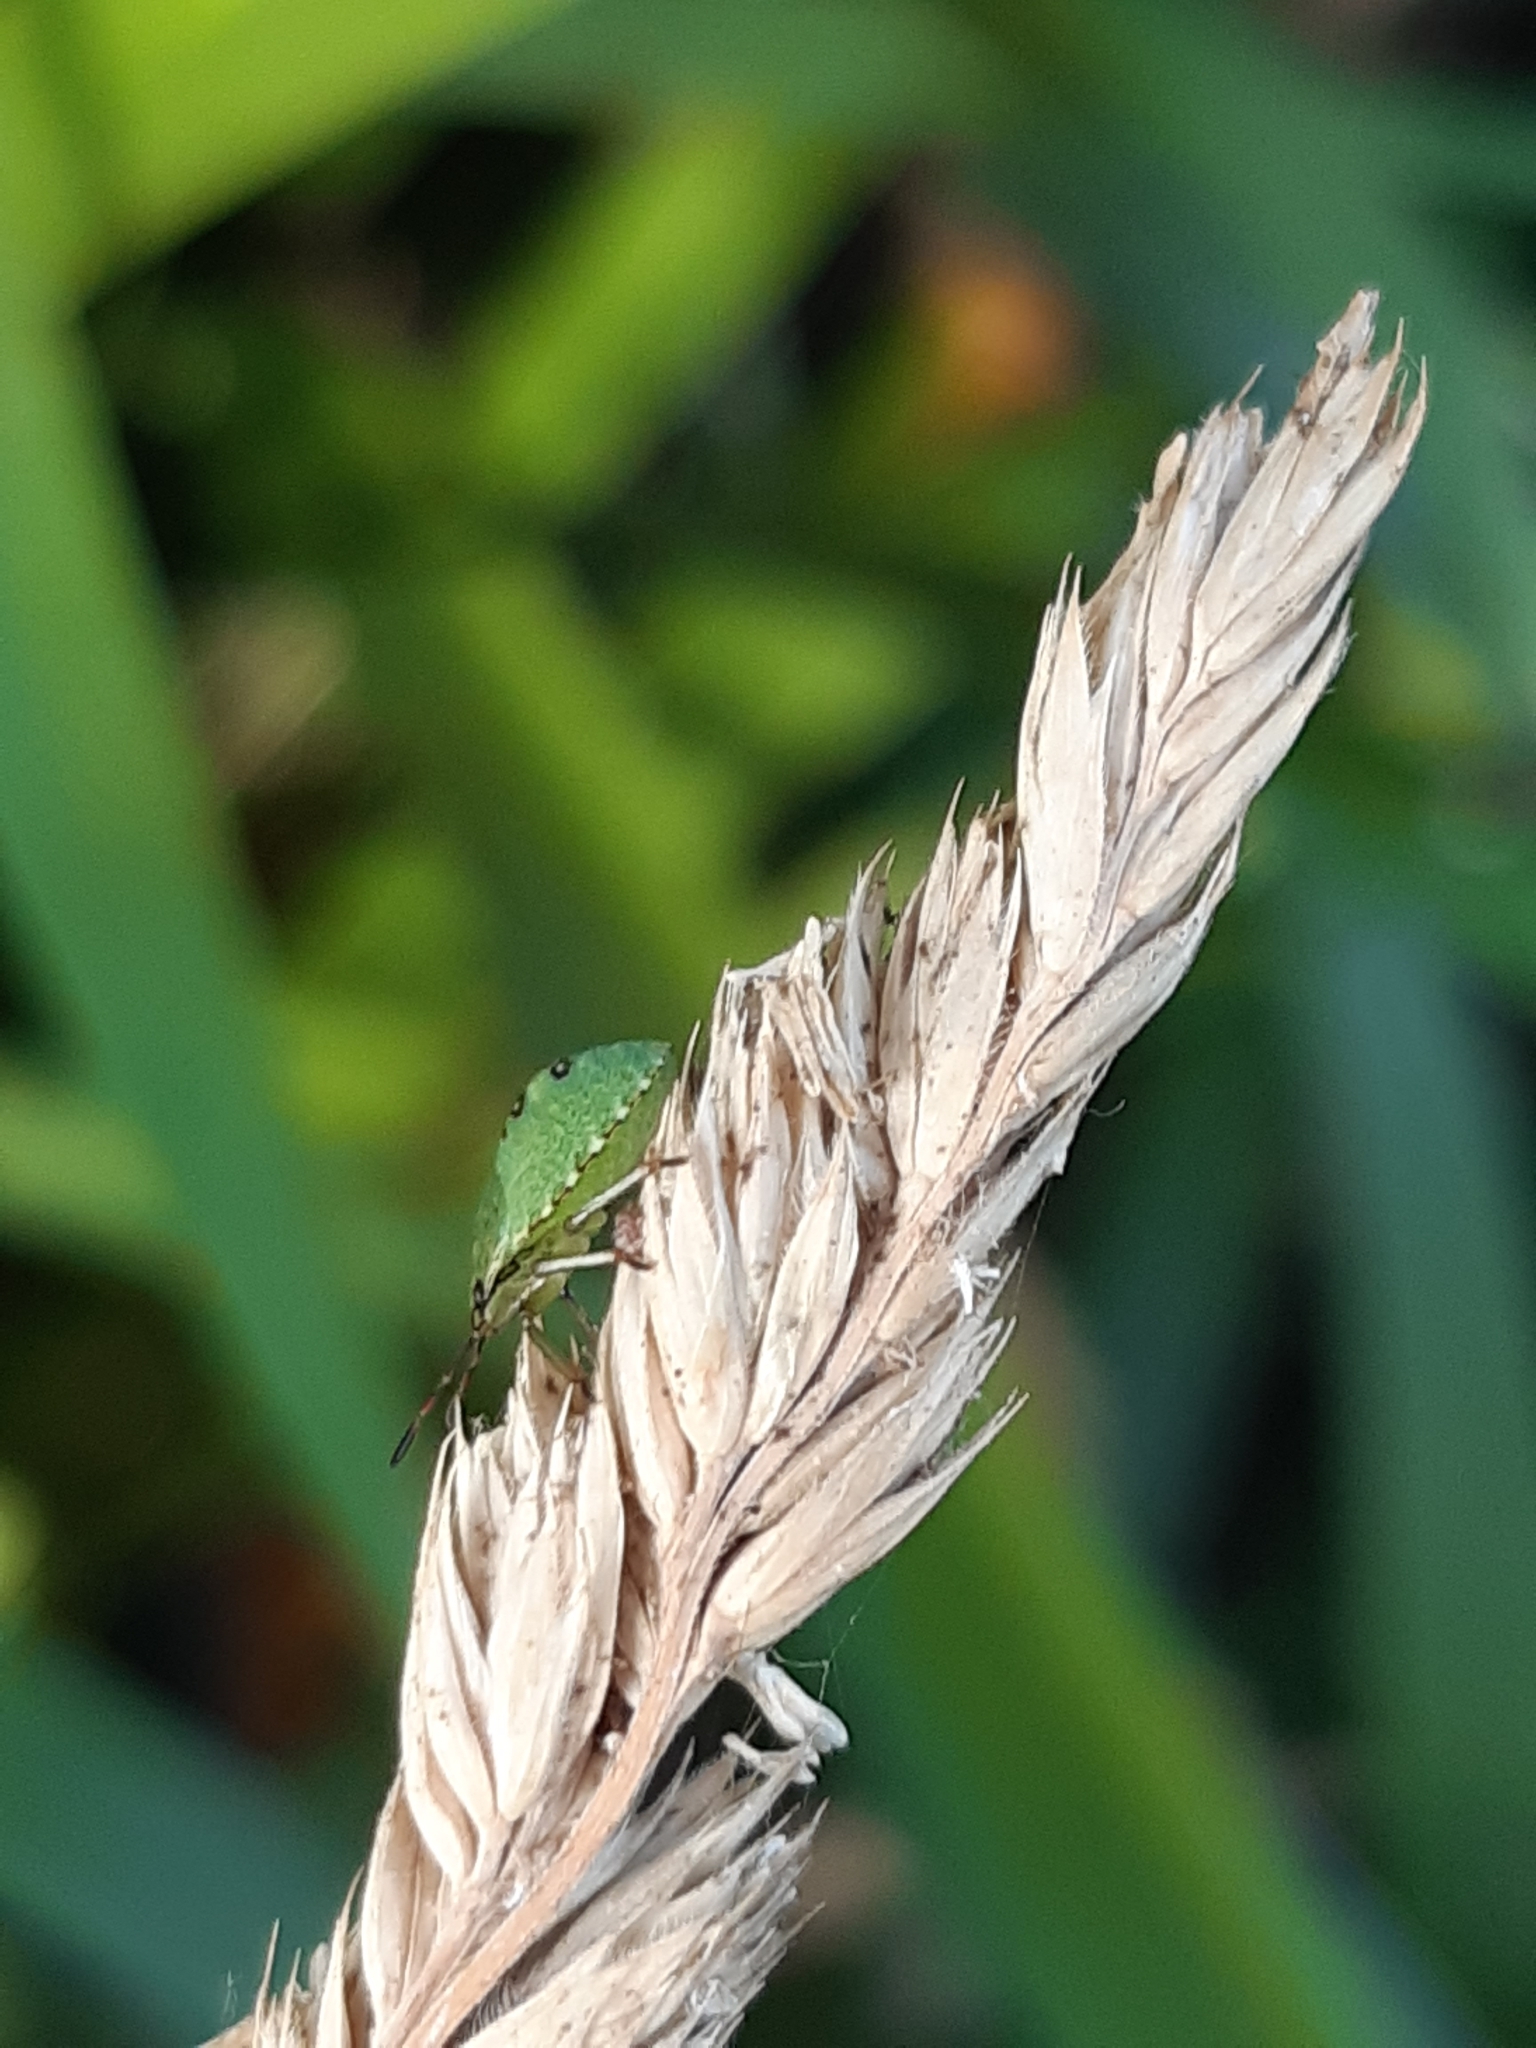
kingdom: Animalia
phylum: Arthropoda
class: Insecta
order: Hemiptera
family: Pentatomidae
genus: Palomena
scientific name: Palomena prasina
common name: Green shieldbug
